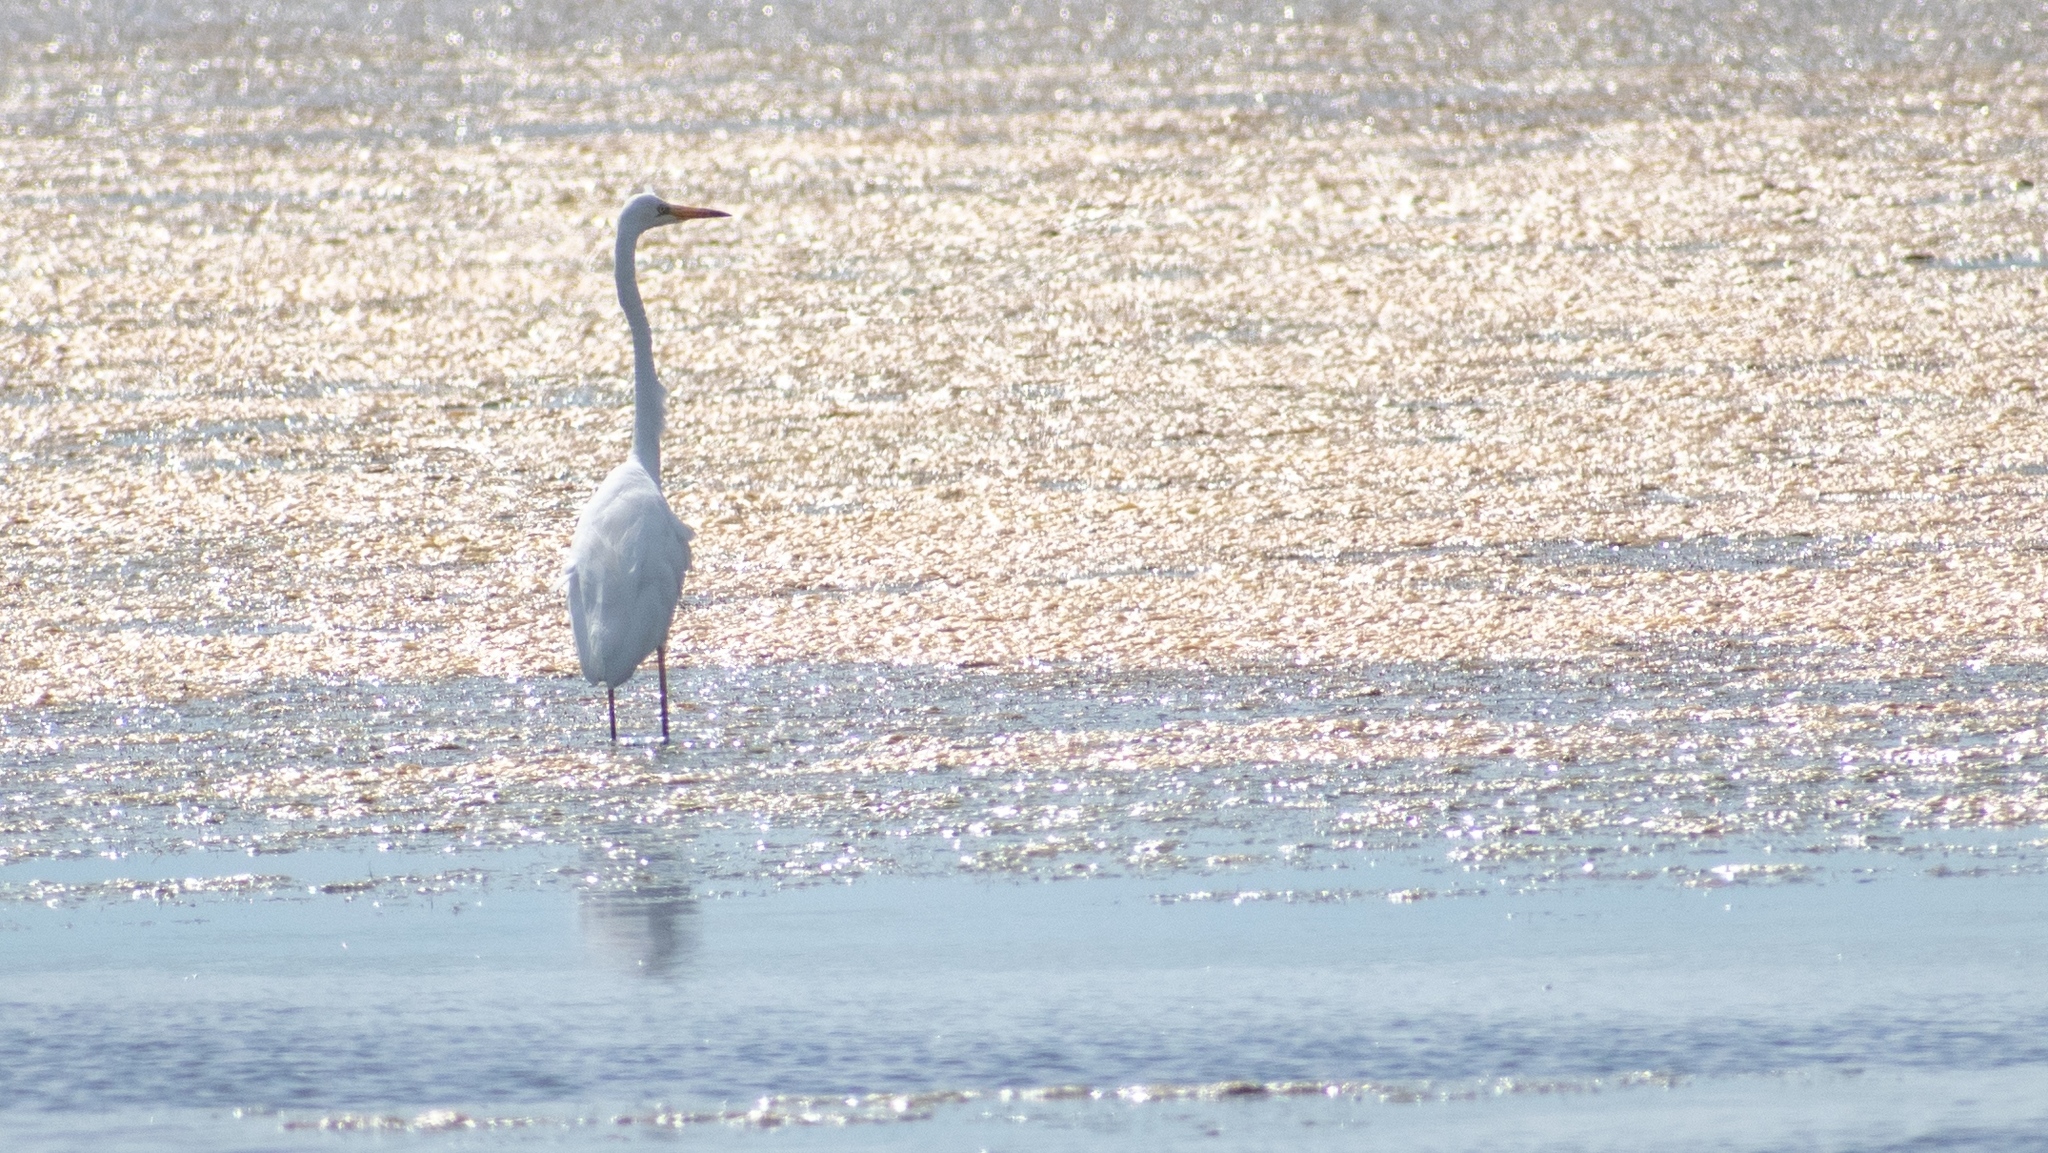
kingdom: Animalia
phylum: Chordata
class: Aves
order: Pelecaniformes
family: Ardeidae
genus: Ardea
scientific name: Ardea alba
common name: Great egret
